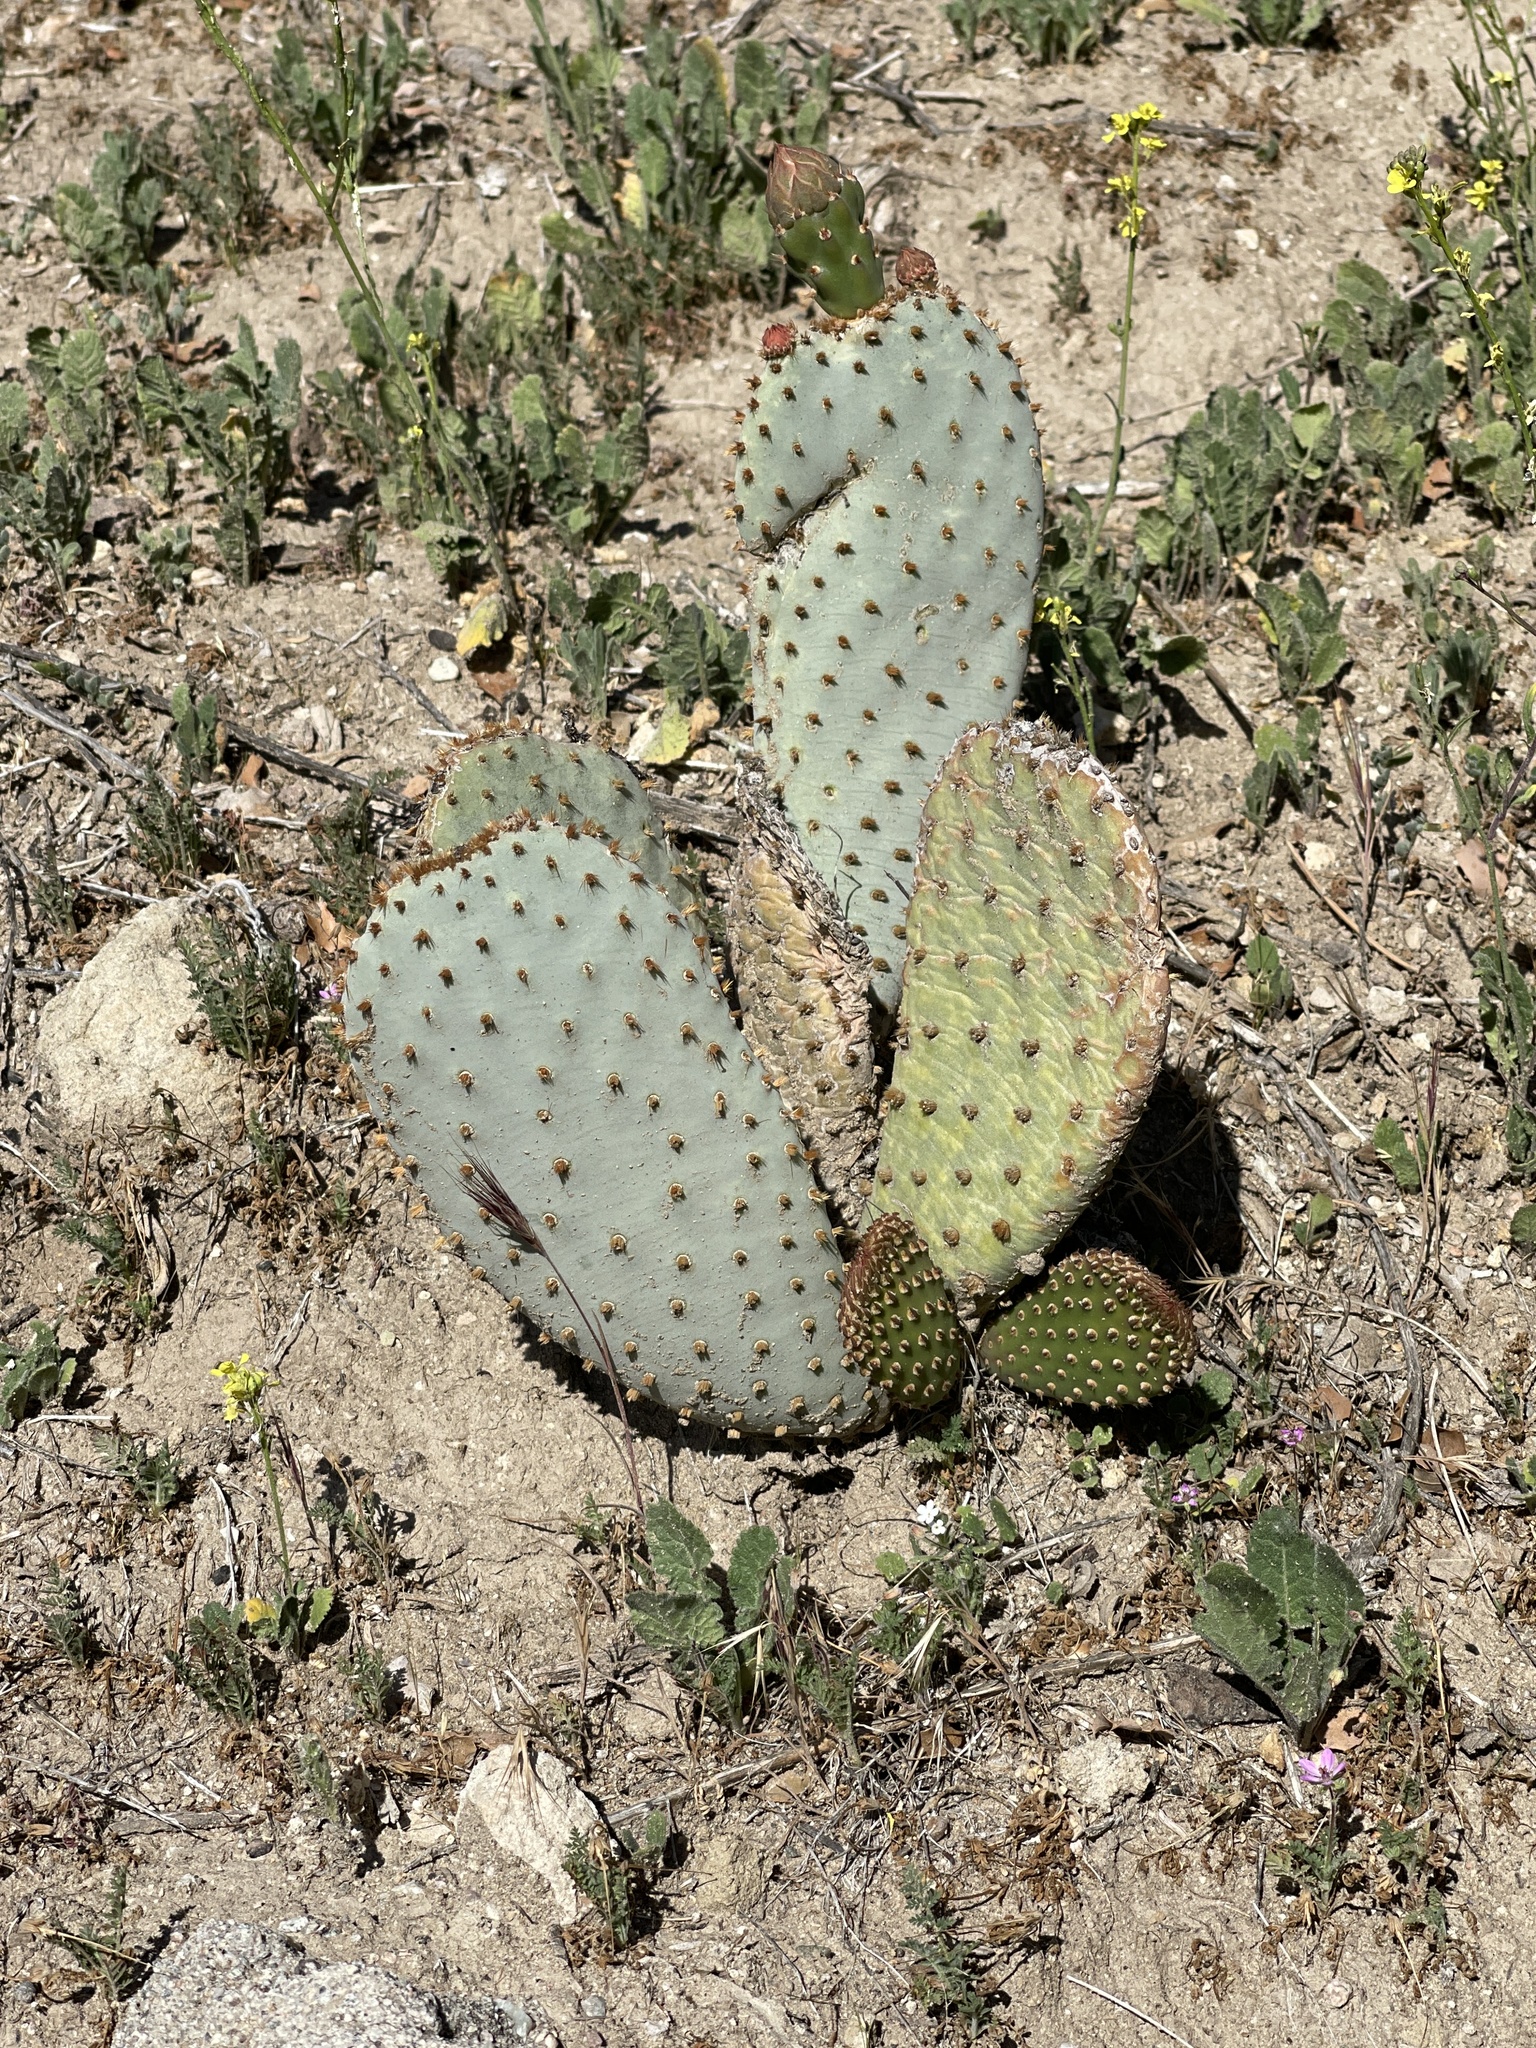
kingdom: Plantae
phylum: Tracheophyta
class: Magnoliopsida
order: Caryophyllales
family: Cactaceae
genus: Opuntia
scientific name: Opuntia basilaris
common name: Beavertail prickly-pear
